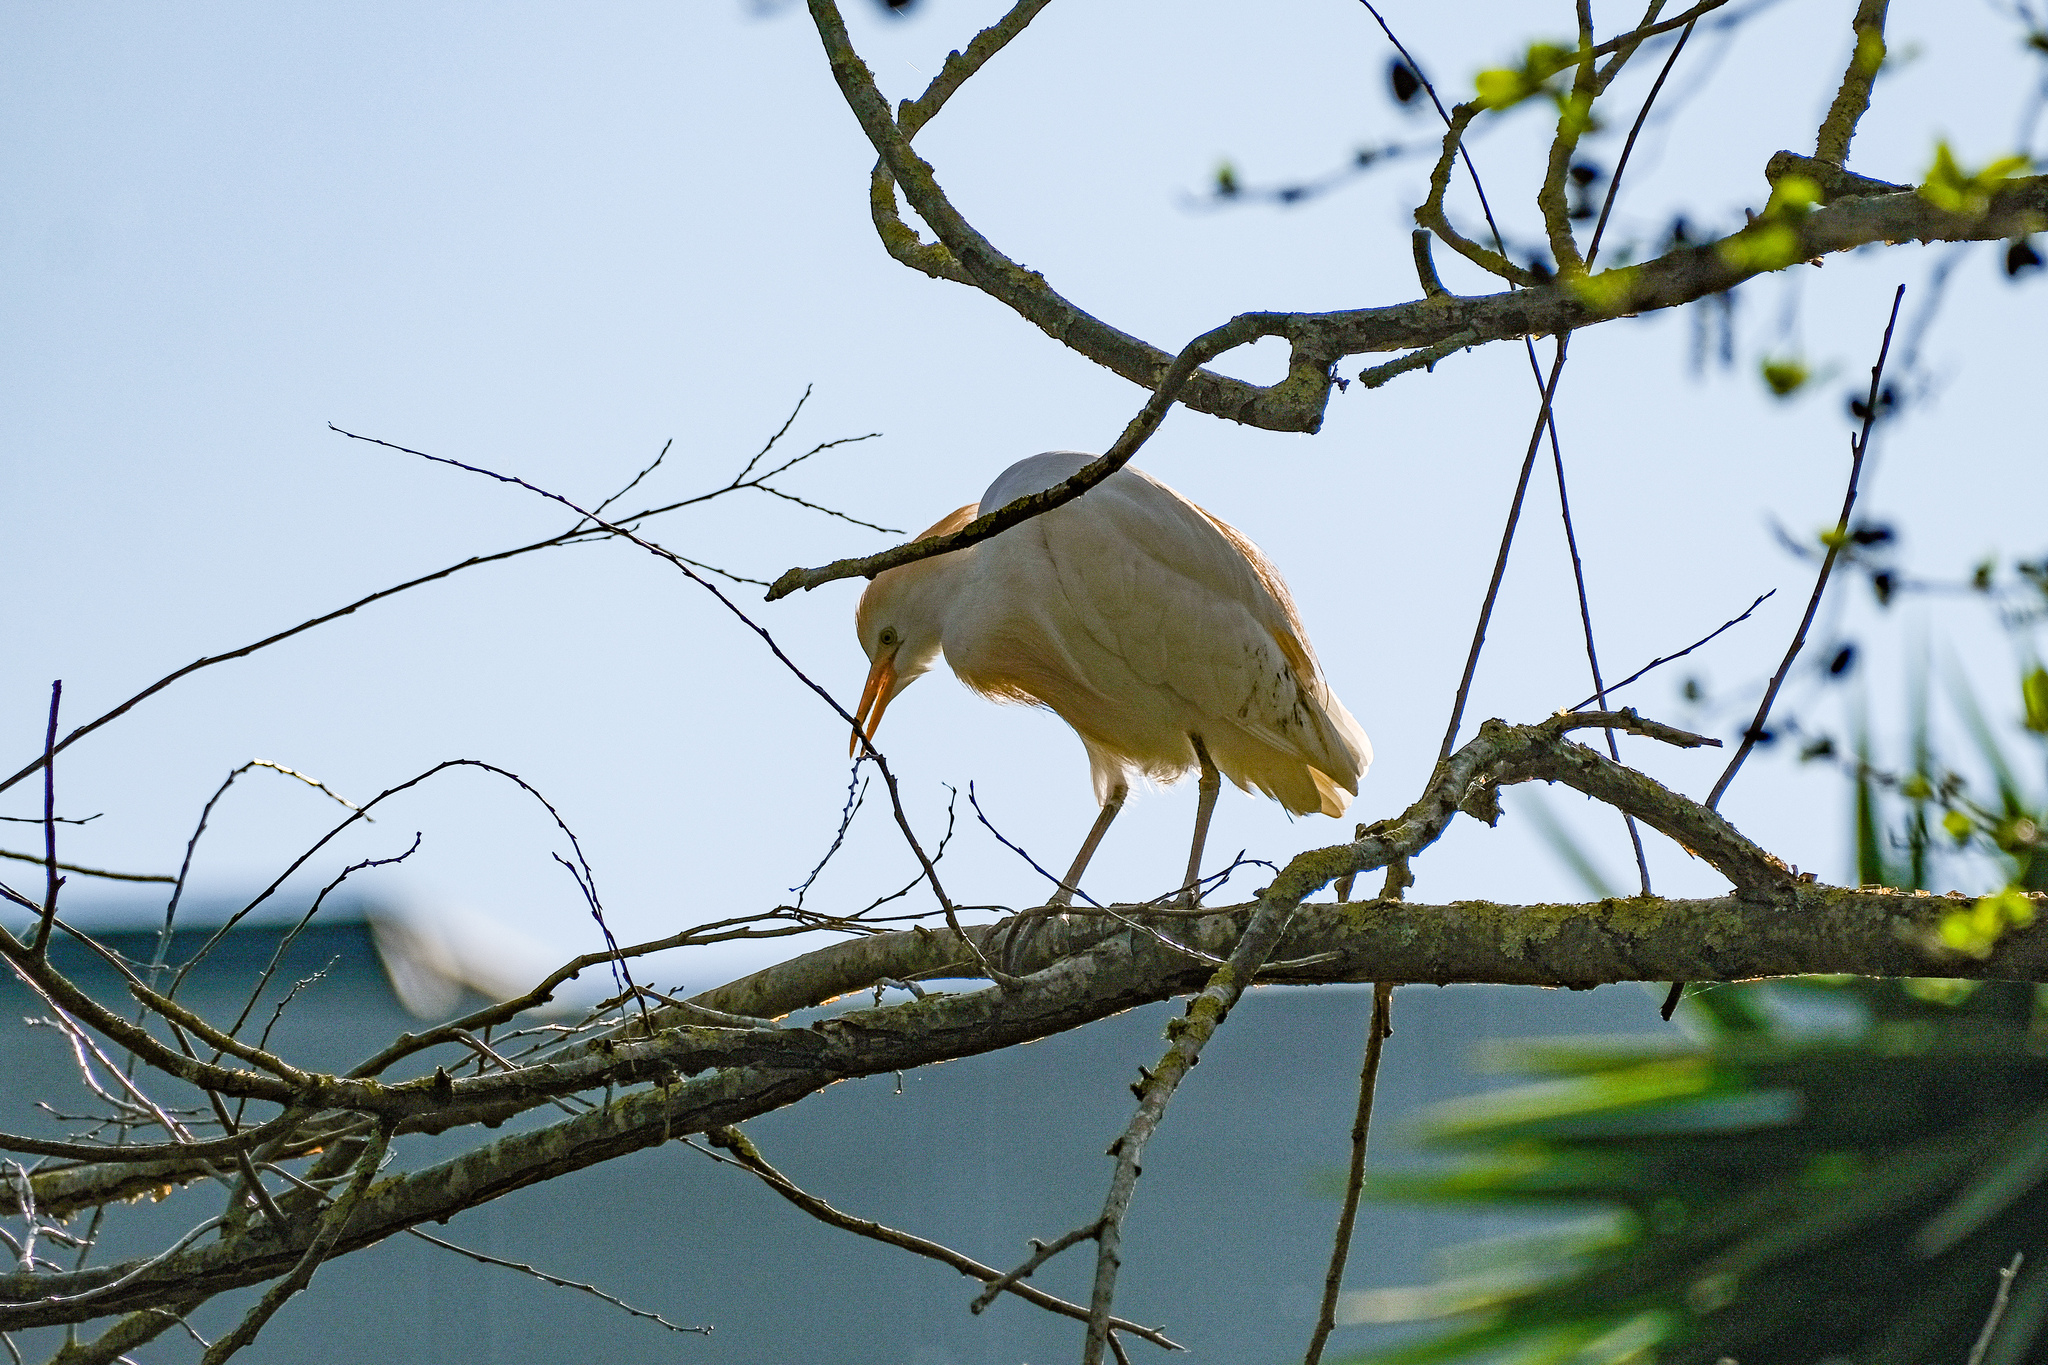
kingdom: Animalia
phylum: Chordata
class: Aves
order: Pelecaniformes
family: Ardeidae
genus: Bubulcus
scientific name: Bubulcus ibis
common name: Cattle egret
